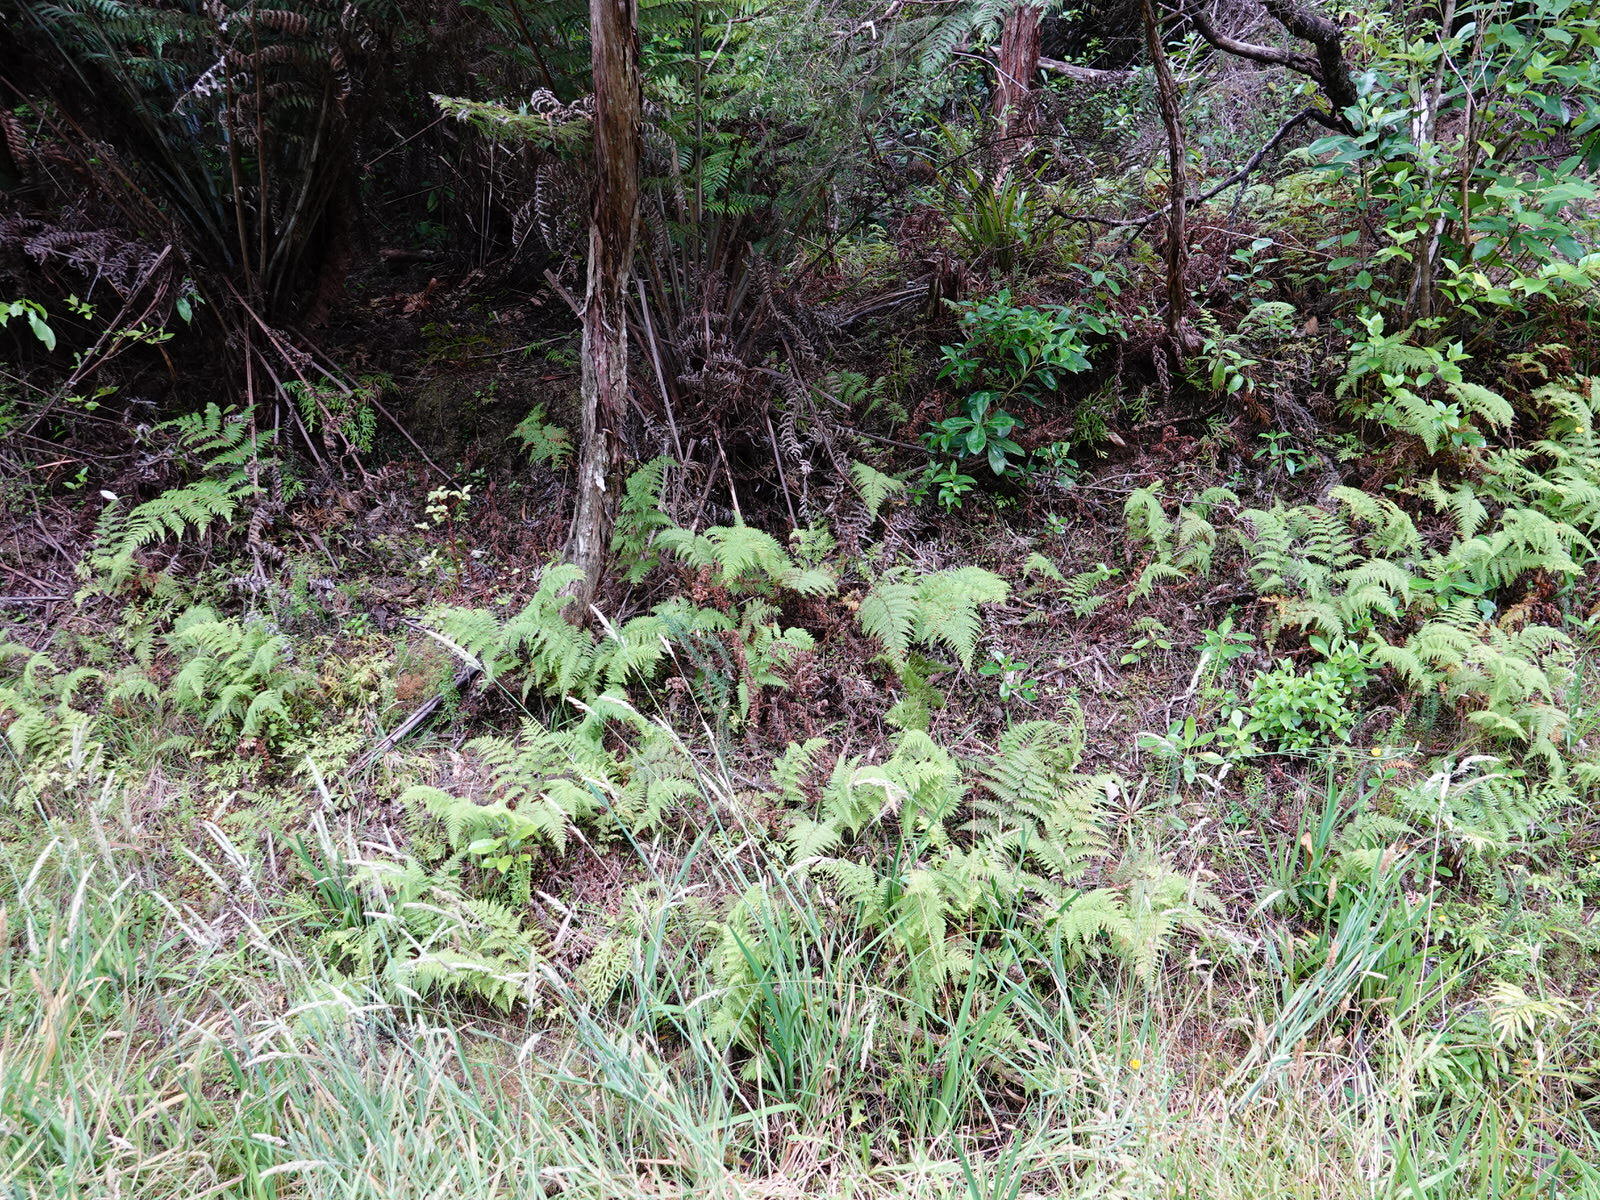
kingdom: Plantae
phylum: Tracheophyta
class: Polypodiopsida
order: Polypodiales
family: Dennstaedtiaceae
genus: Paesia
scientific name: Paesia scaberula
